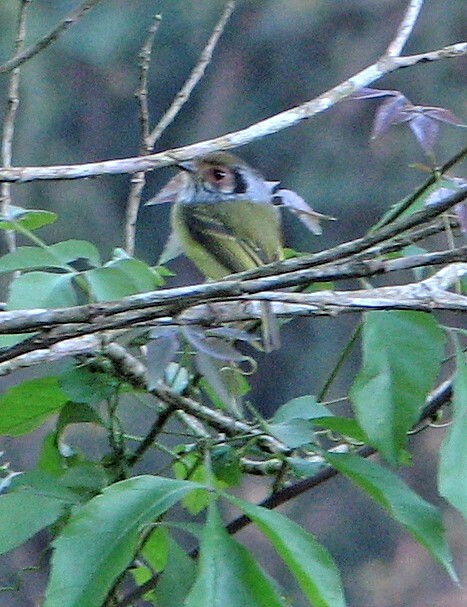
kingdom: Animalia
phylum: Chordata
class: Aves
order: Passeriformes
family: Tyrannidae
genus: Myiornis
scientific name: Myiornis auricularis
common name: Eared pygmy tyrant
